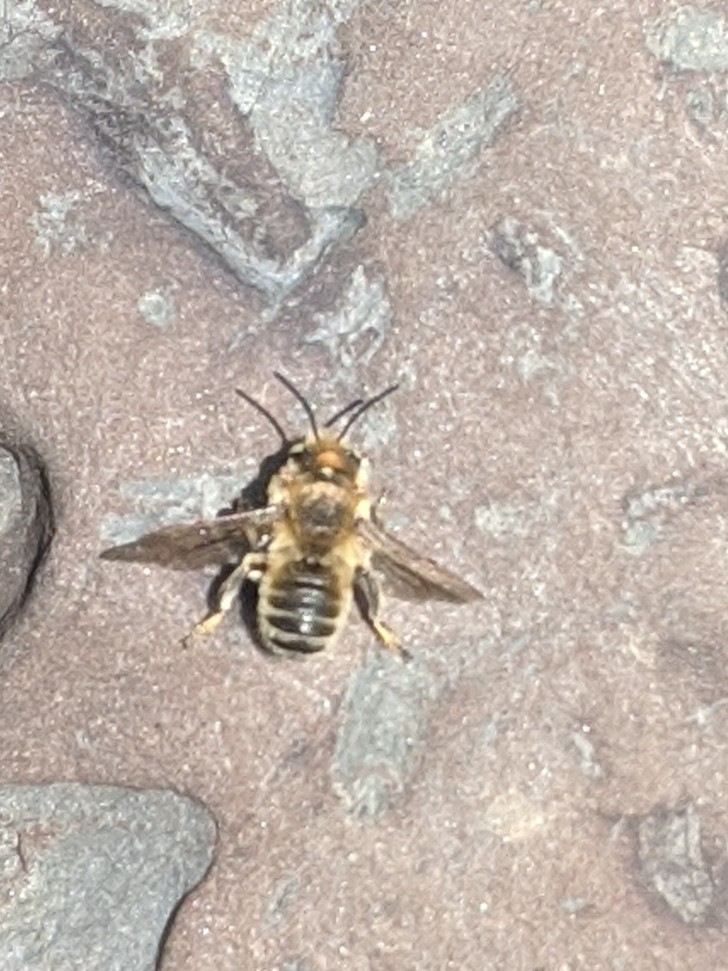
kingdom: Animalia
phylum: Arthropoda
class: Insecta
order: Hymenoptera
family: Megachilidae
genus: Megachile
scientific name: Megachile latimanus
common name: Leafcutting bee
